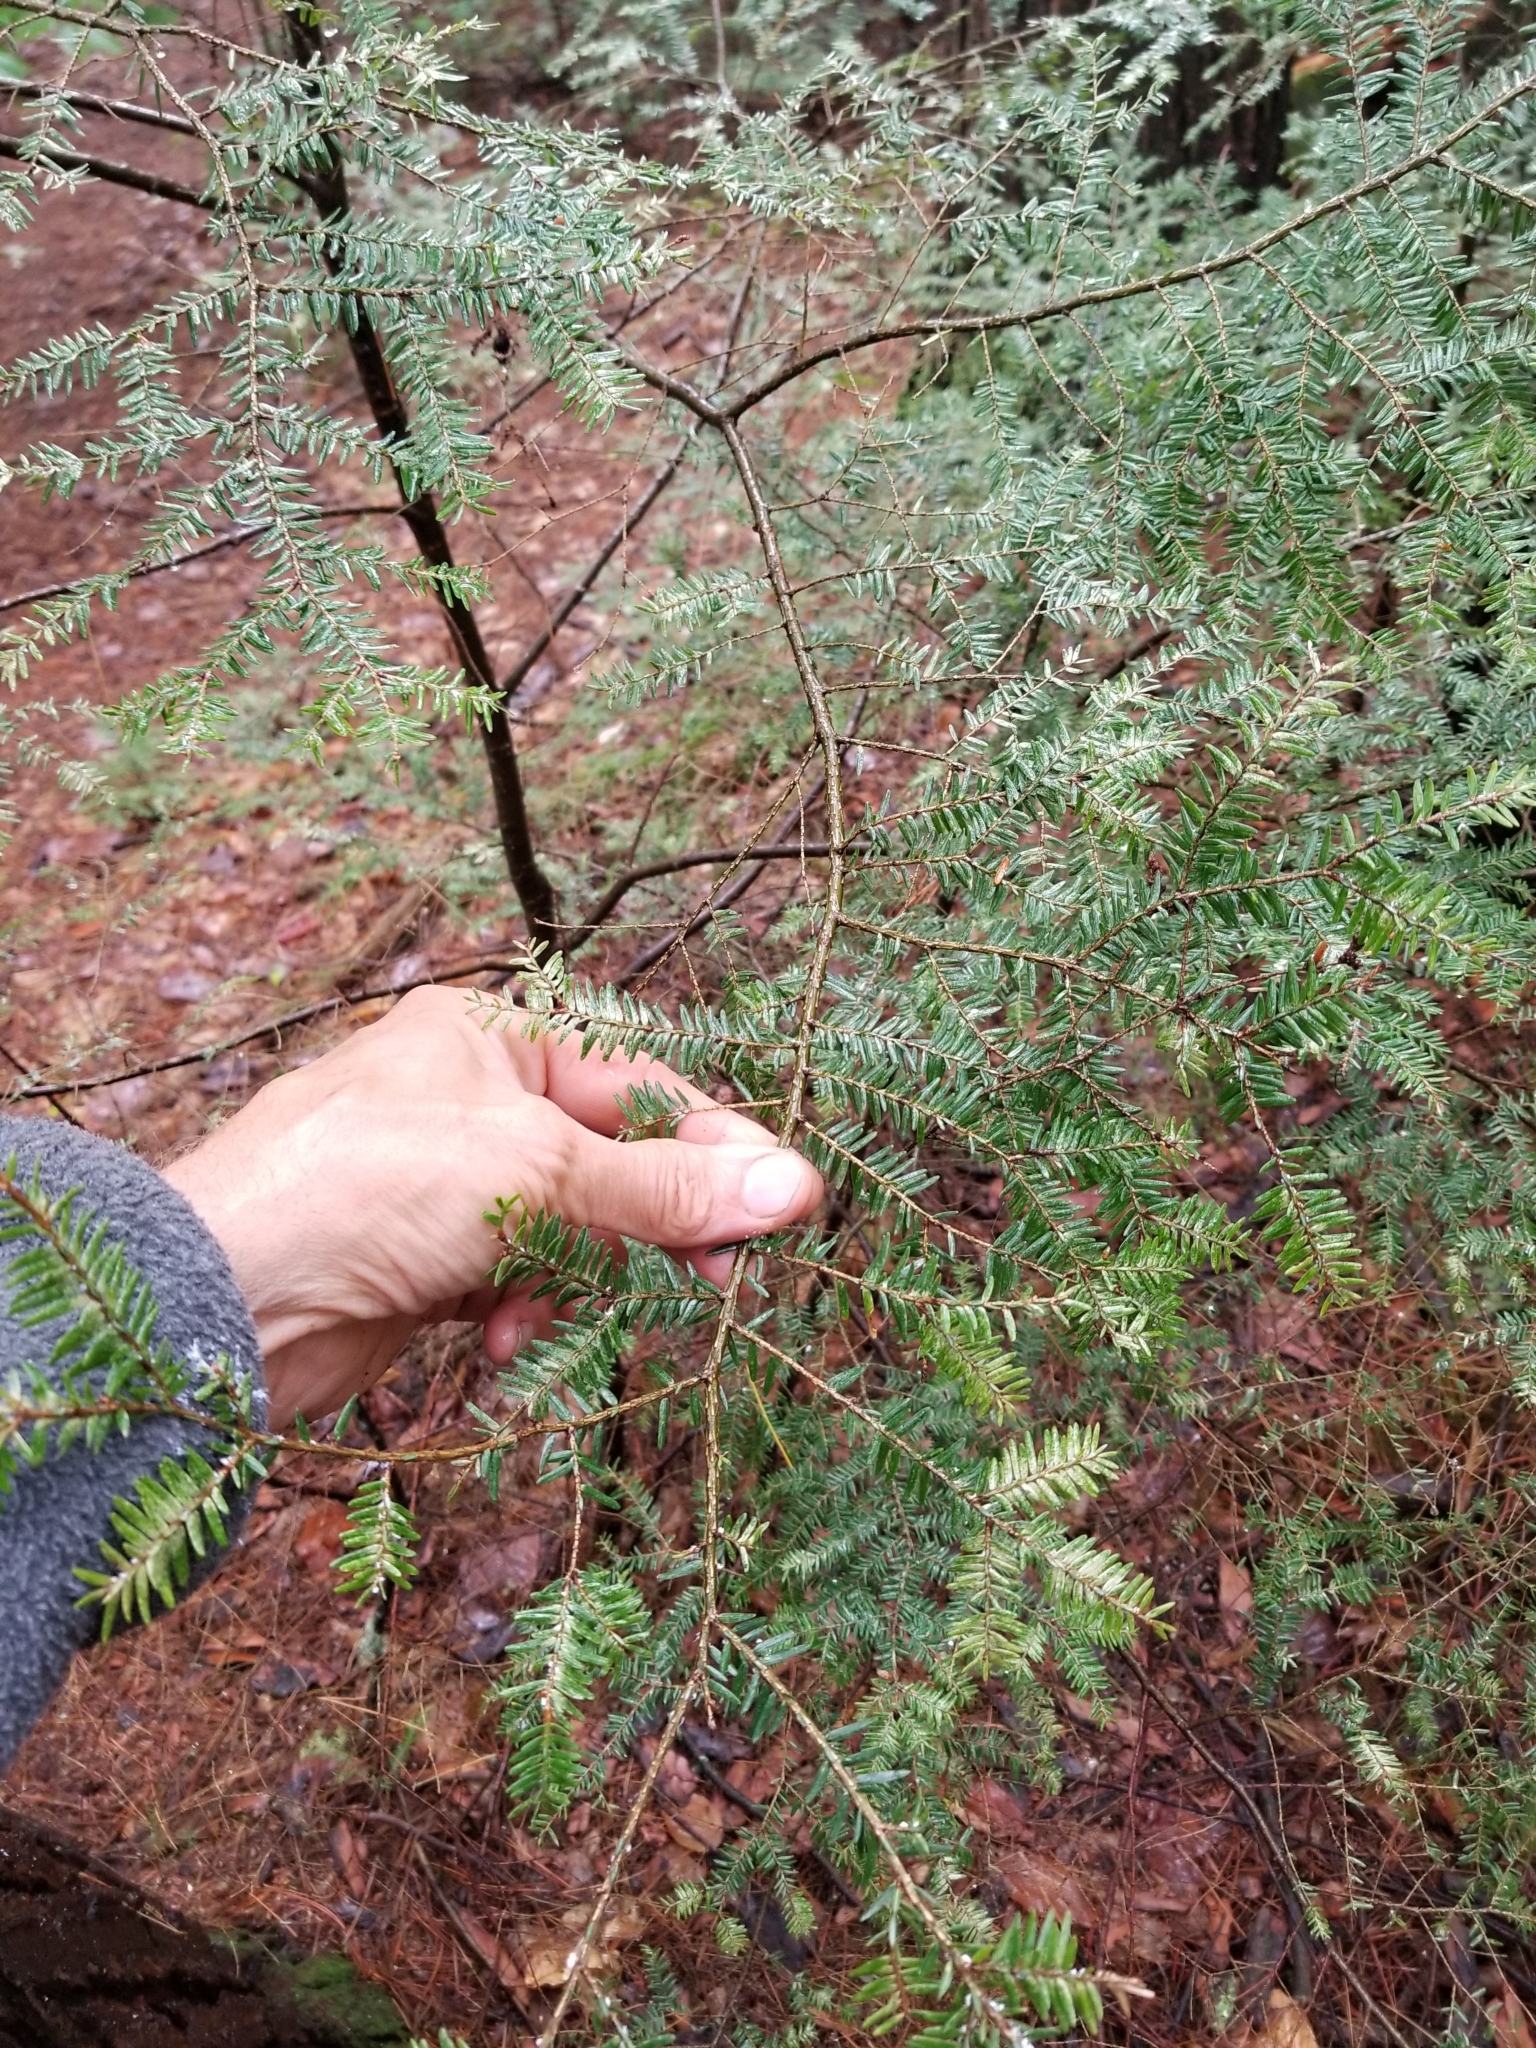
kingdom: Animalia
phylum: Arthropoda
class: Insecta
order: Hemiptera
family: Adelgidae
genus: Adelges
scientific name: Adelges tsugae
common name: Hemlock woolly adelgid
